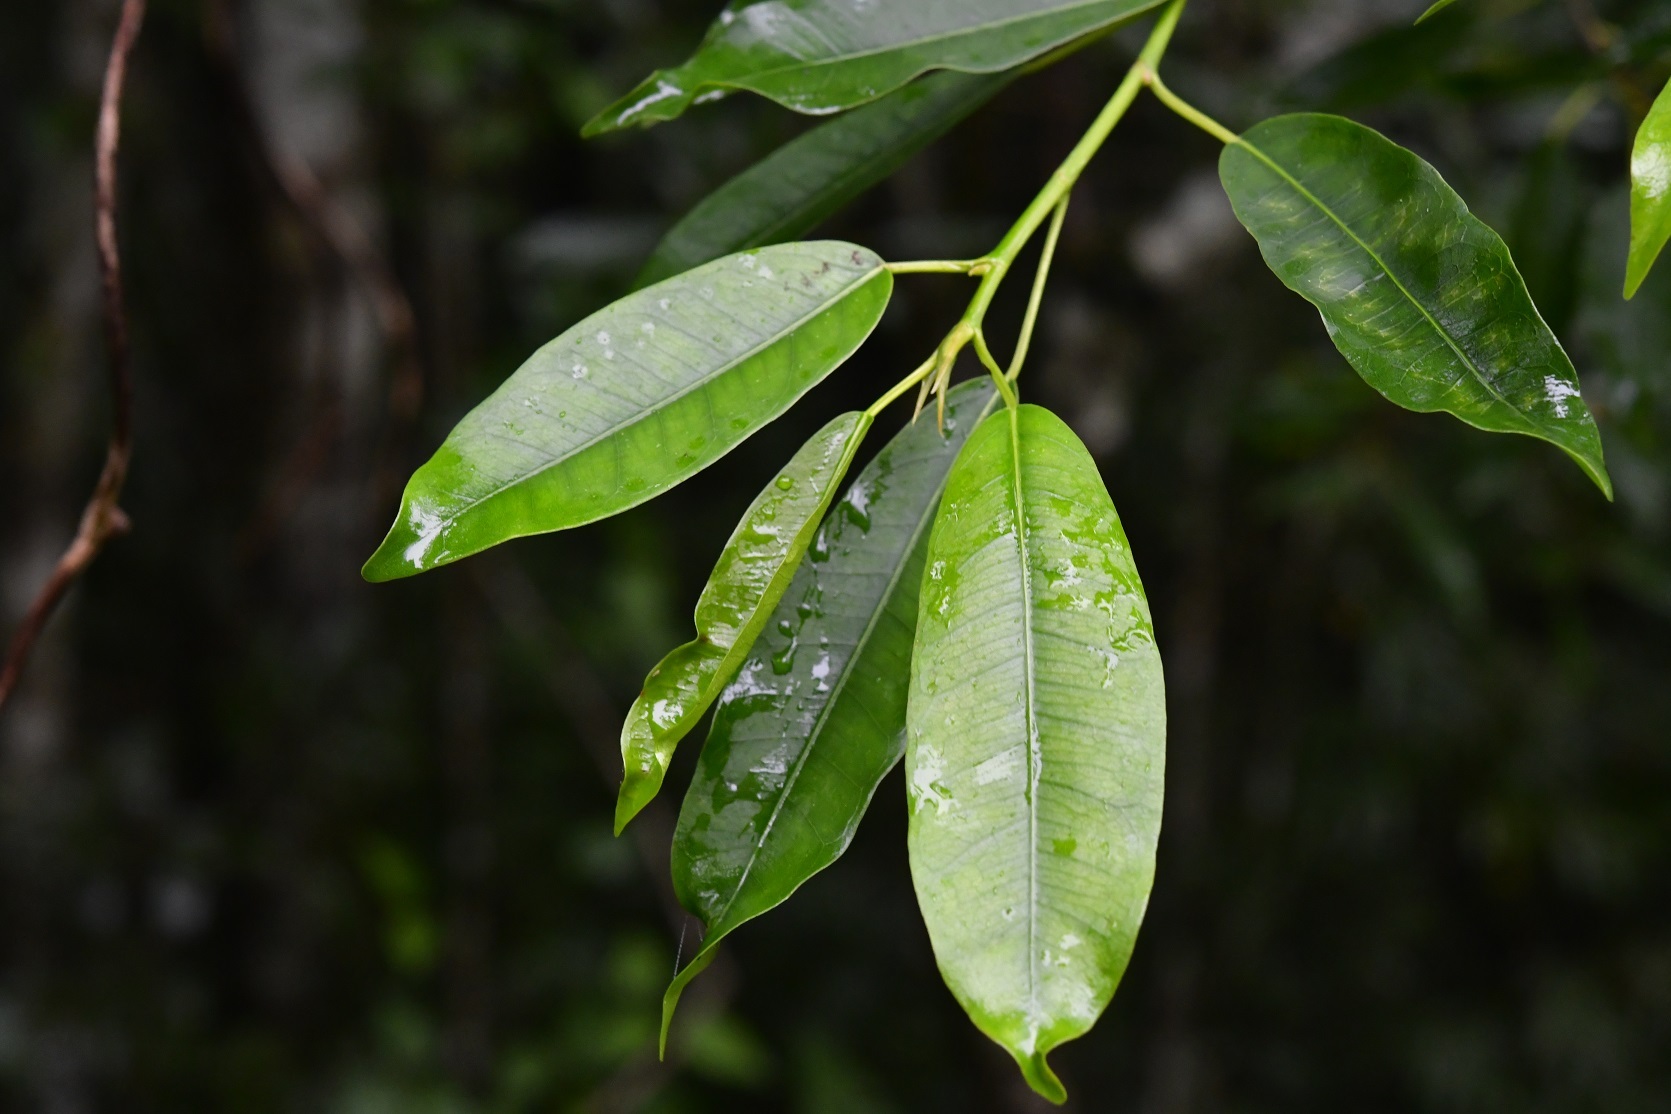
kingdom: Plantae
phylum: Tracheophyta
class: Magnoliopsida
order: Rosales
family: Moraceae
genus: Ficus
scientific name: Ficus pertusa
